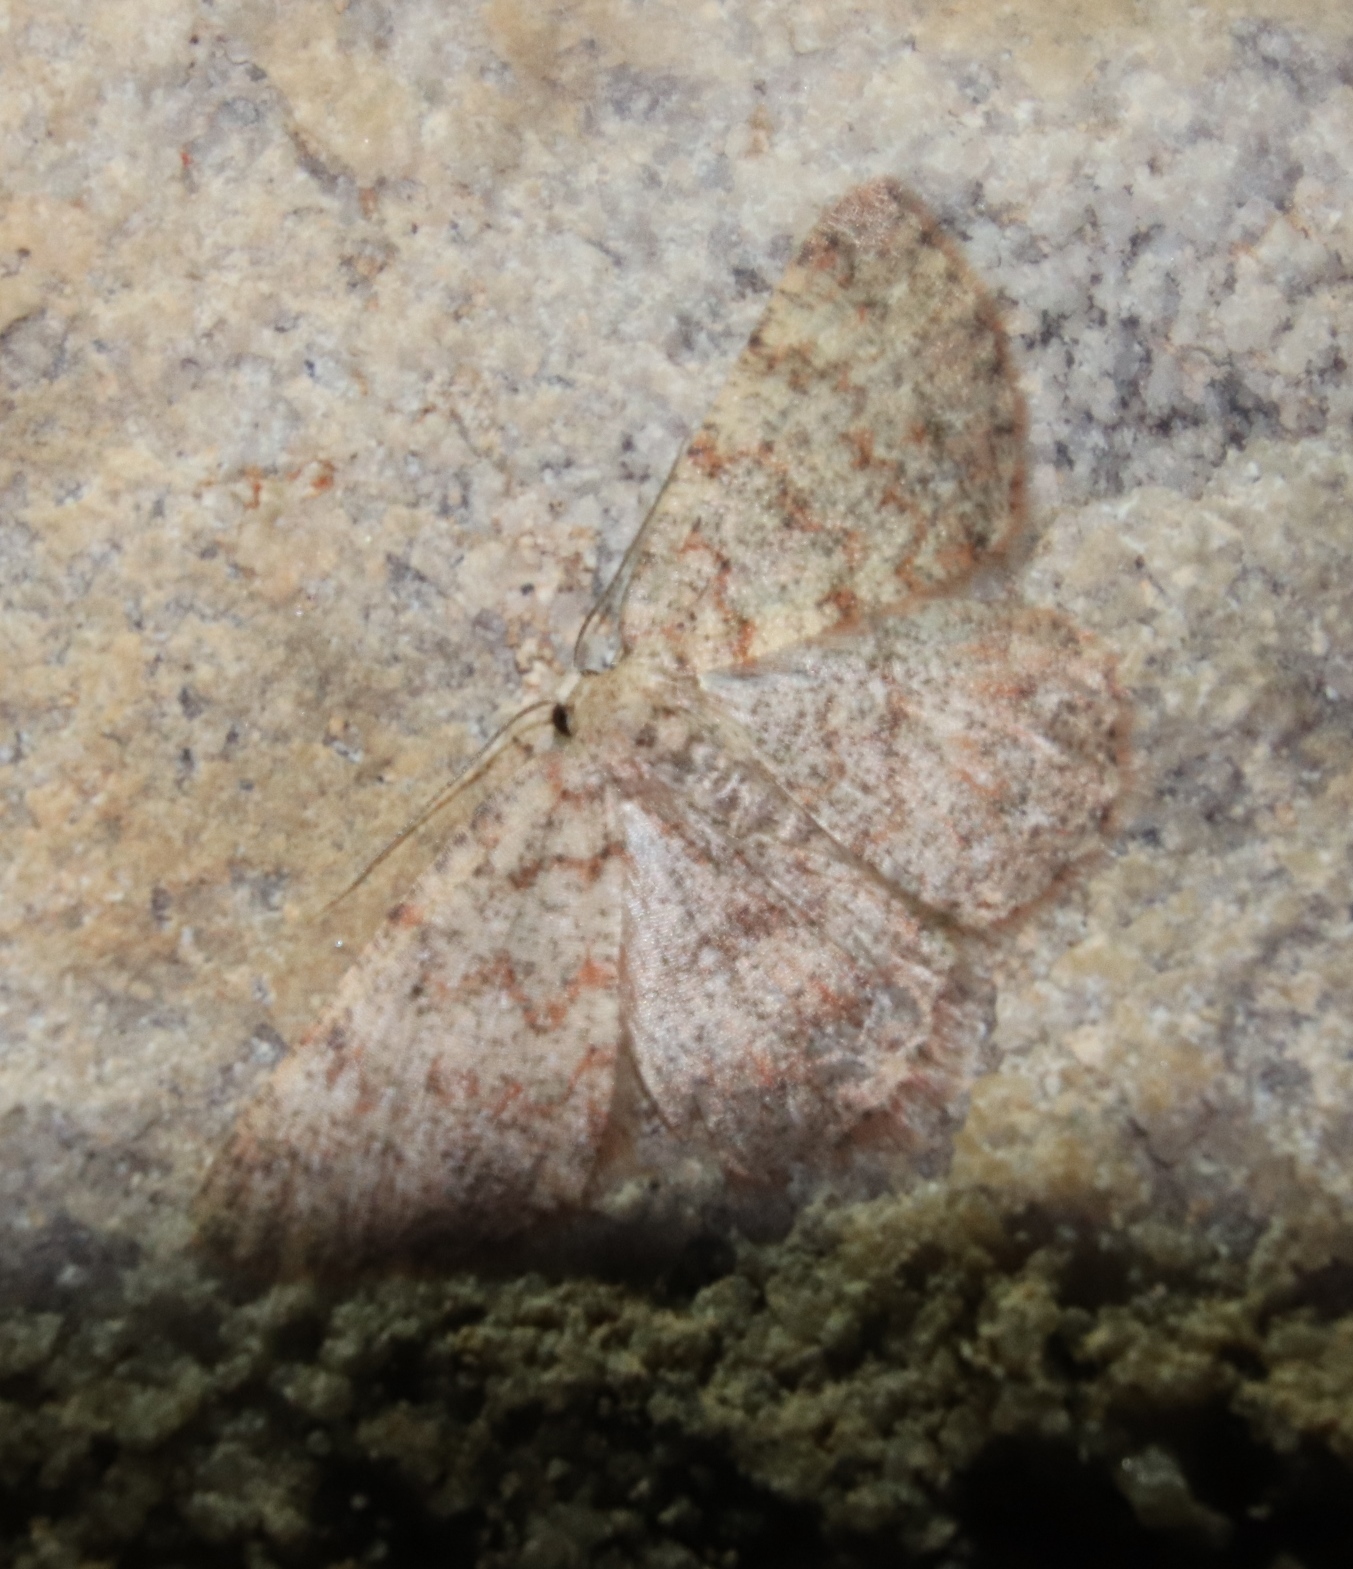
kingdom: Animalia
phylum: Arthropoda
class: Insecta
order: Lepidoptera
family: Geometridae
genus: Idaea
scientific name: Idaea fumilinea
